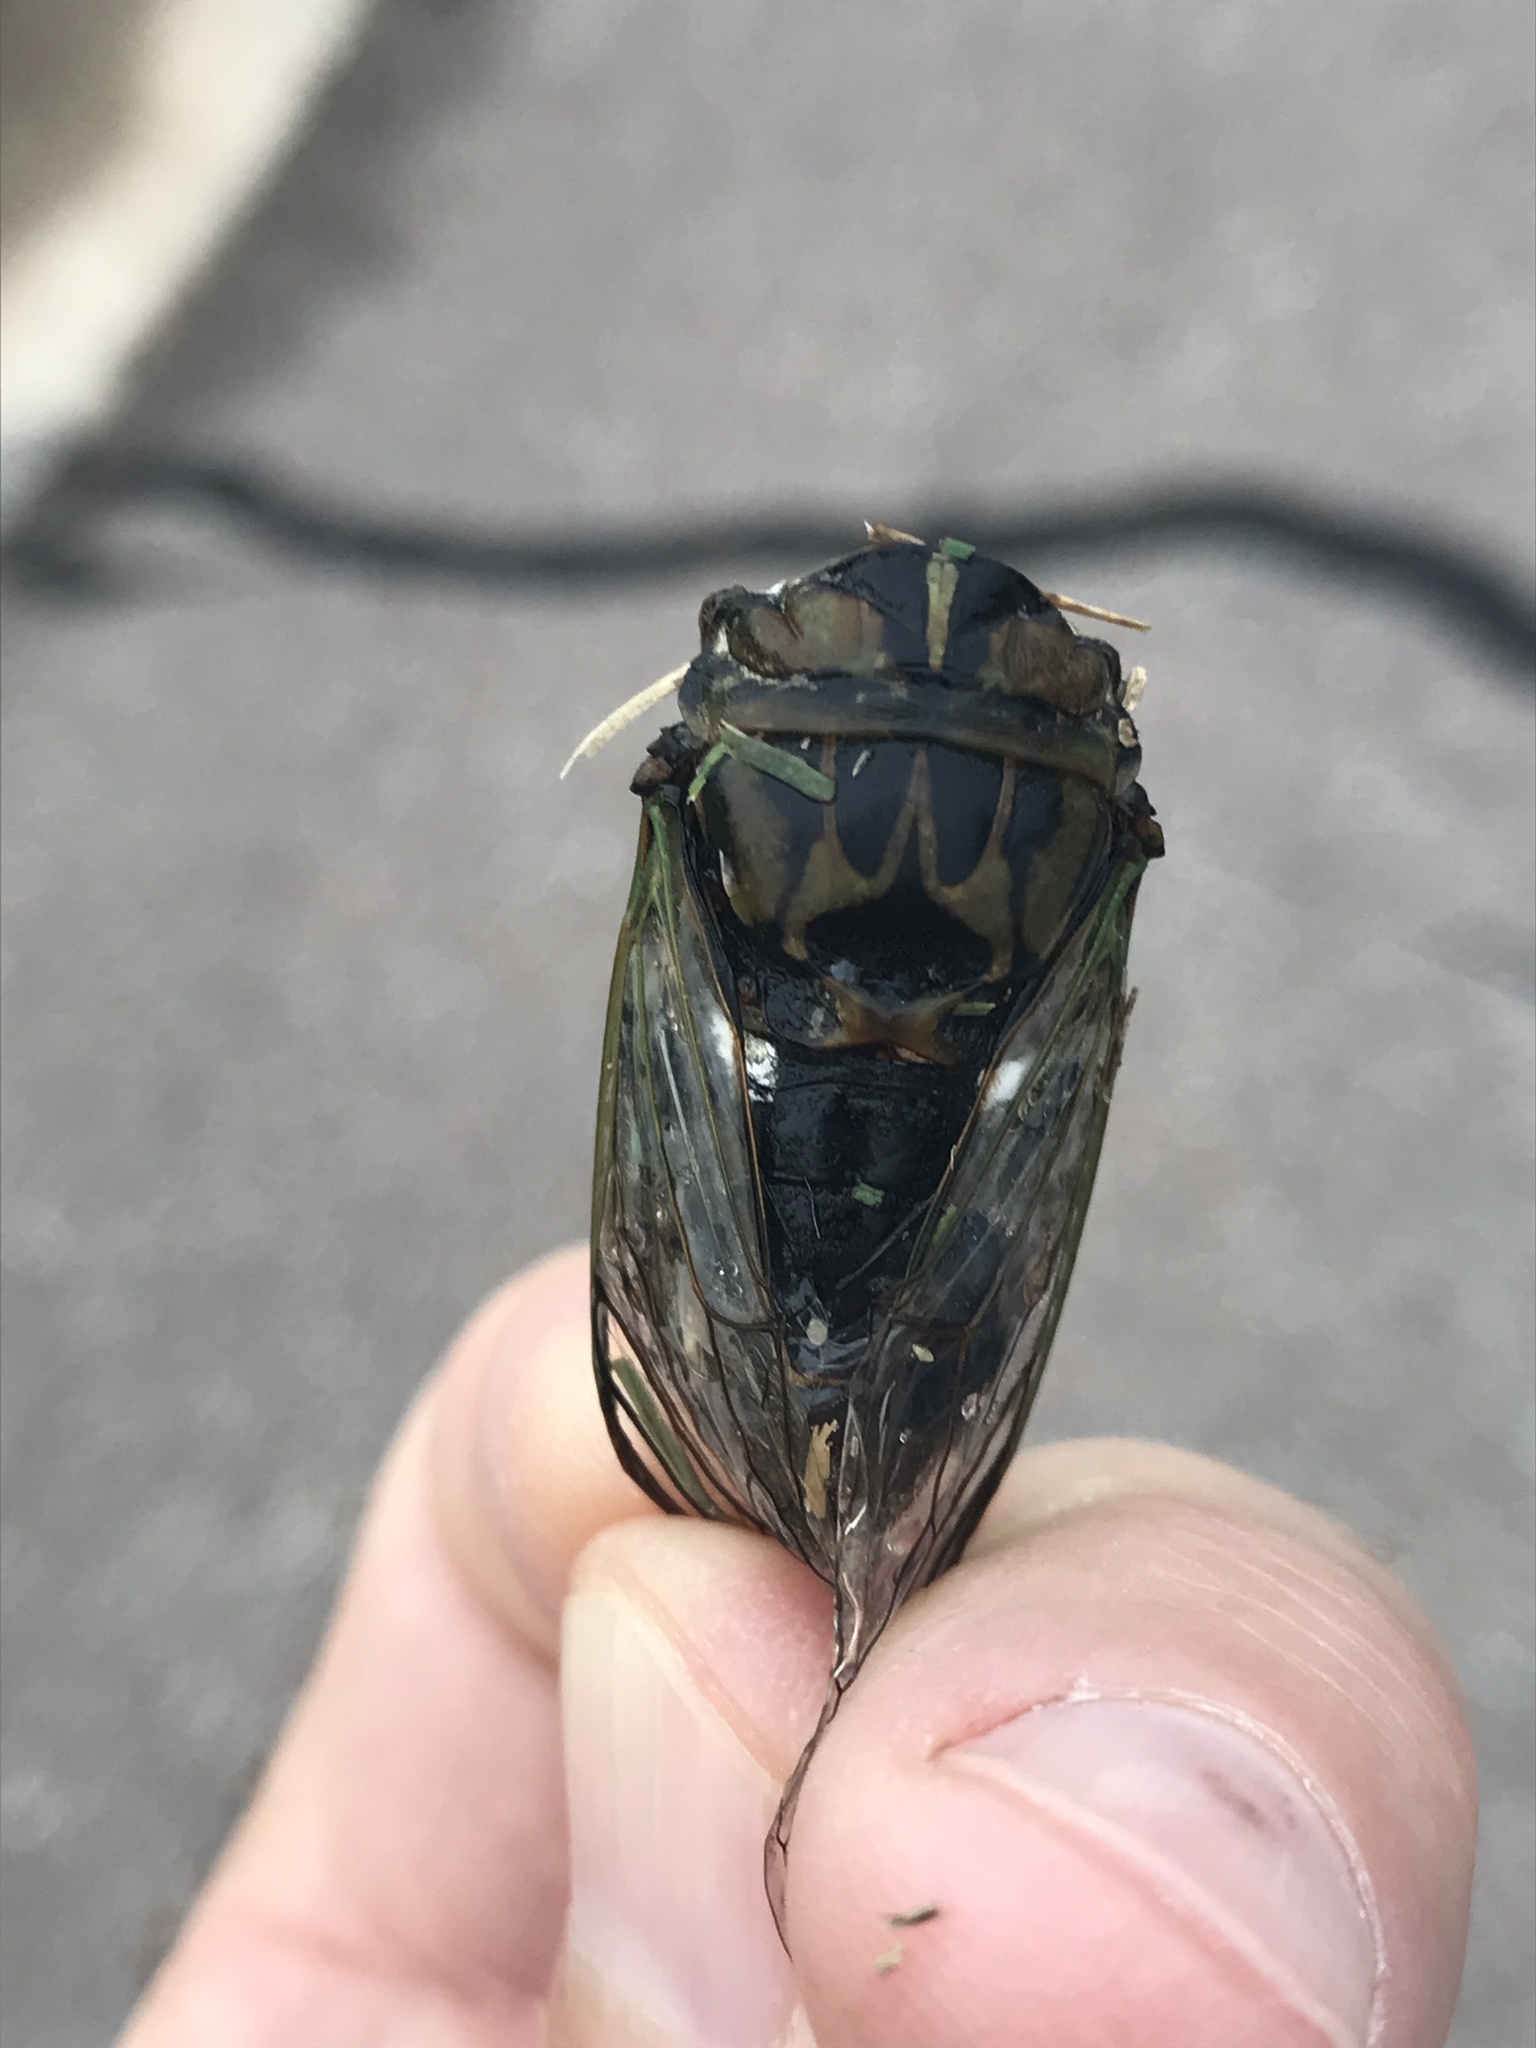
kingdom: Animalia
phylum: Arthropoda
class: Insecta
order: Hemiptera
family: Cicadidae
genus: Neotibicen
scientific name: Neotibicen pruinosus
